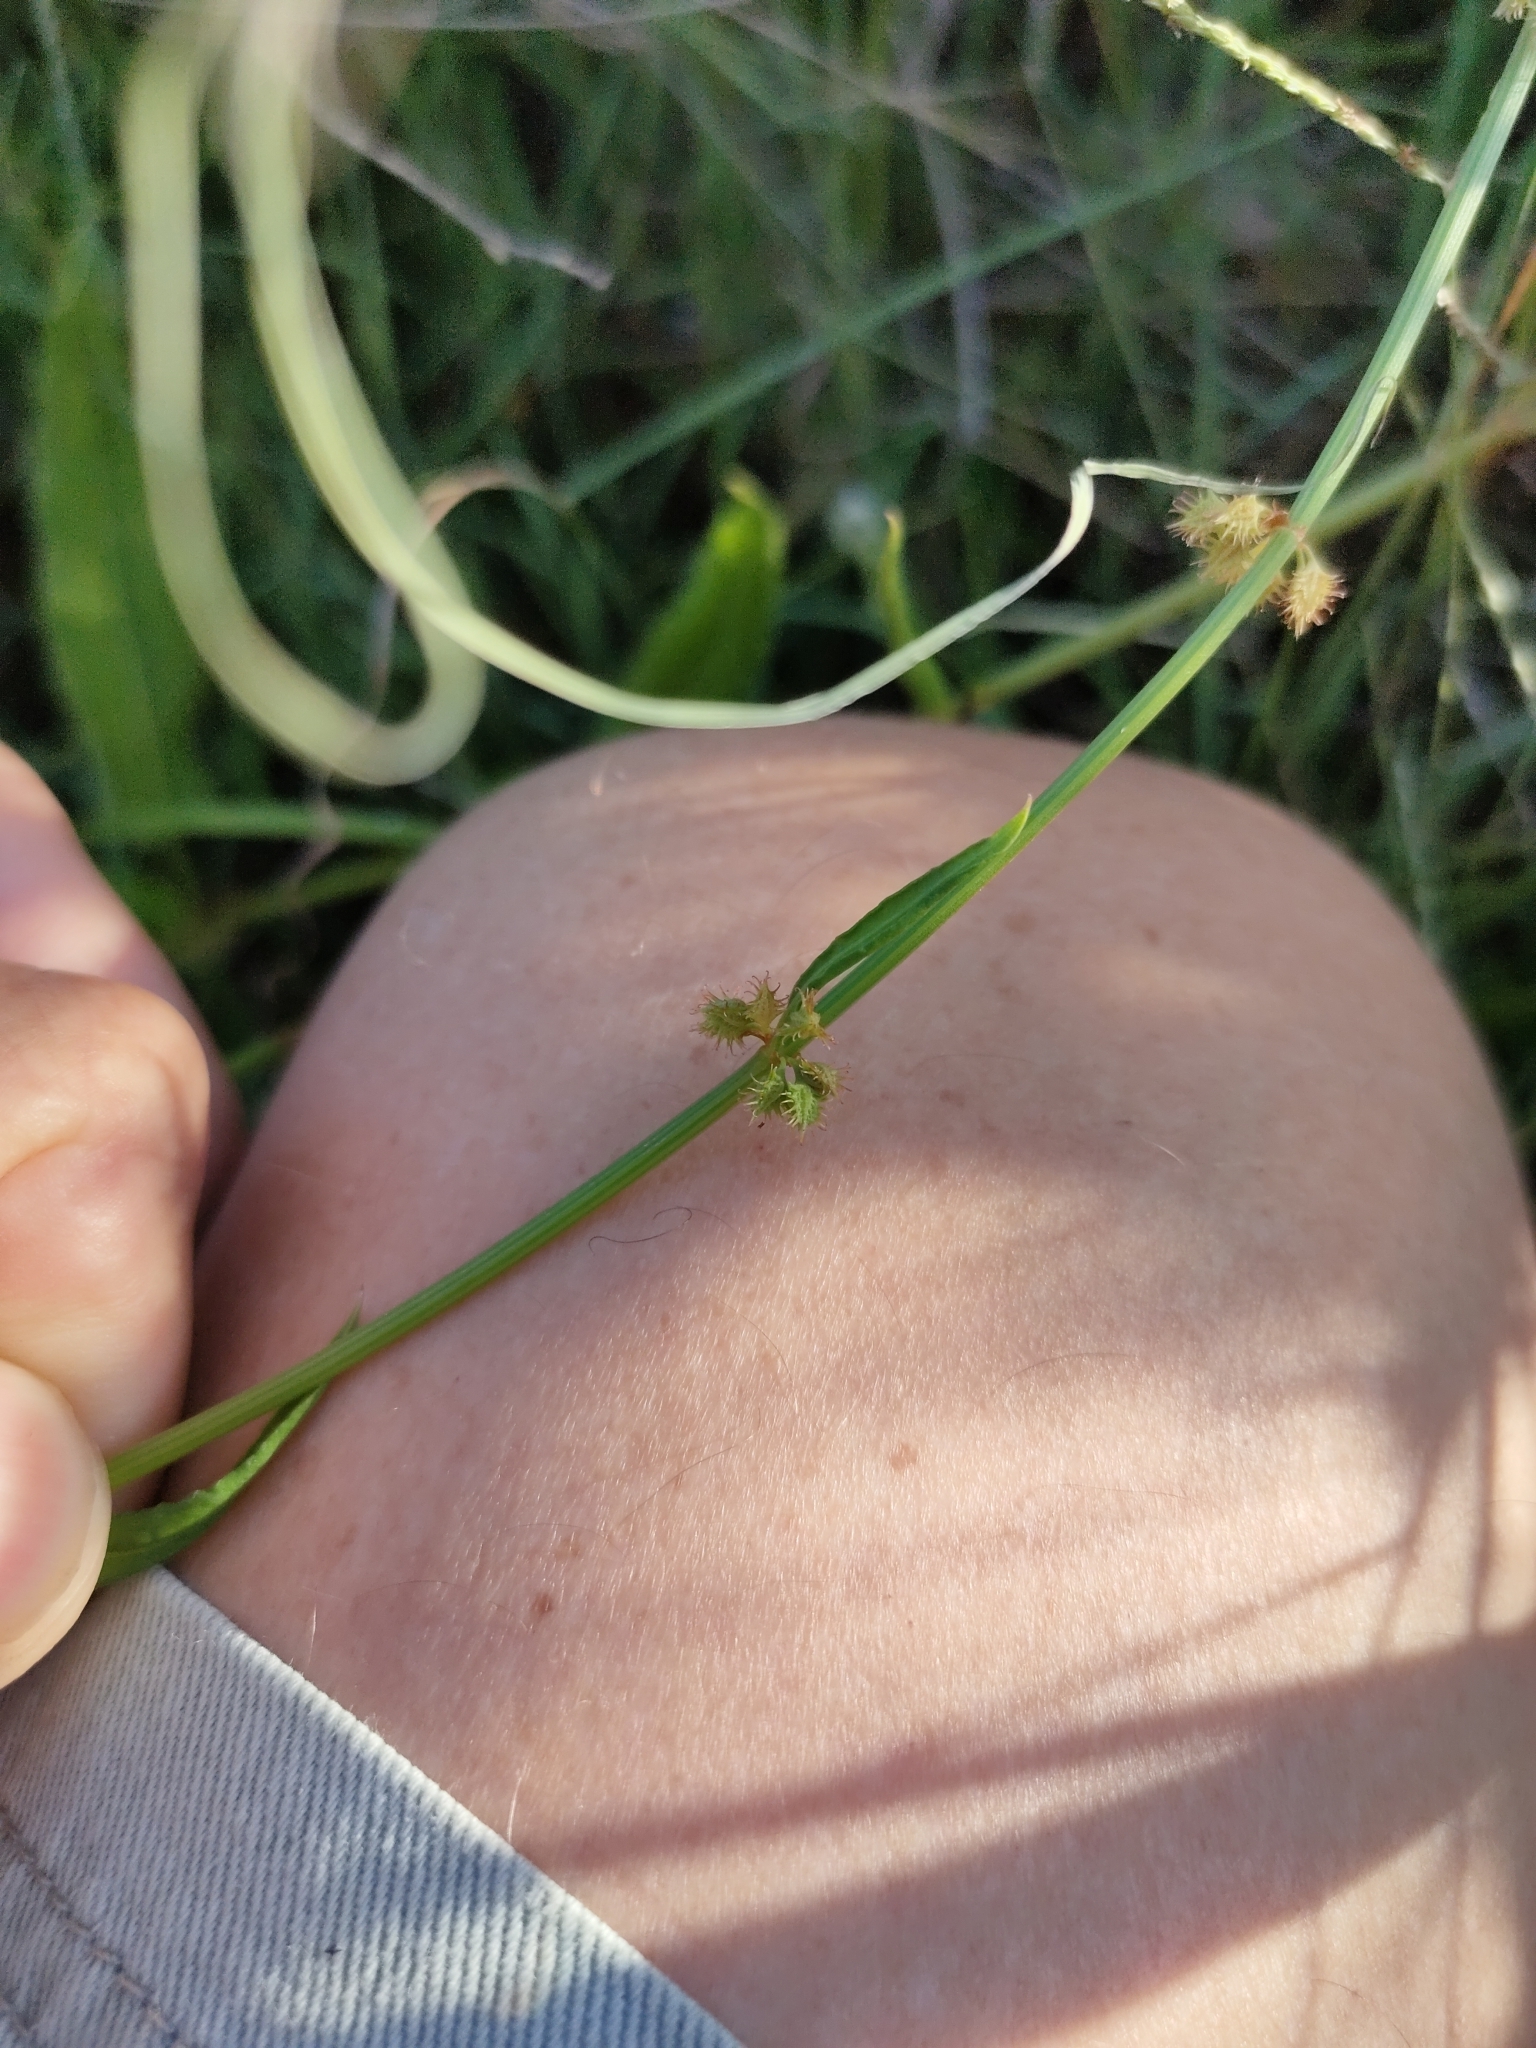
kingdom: Plantae
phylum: Tracheophyta
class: Magnoliopsida
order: Caryophyllales
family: Polygonaceae
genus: Rumex
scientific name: Rumex brownii
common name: Hooked dock
